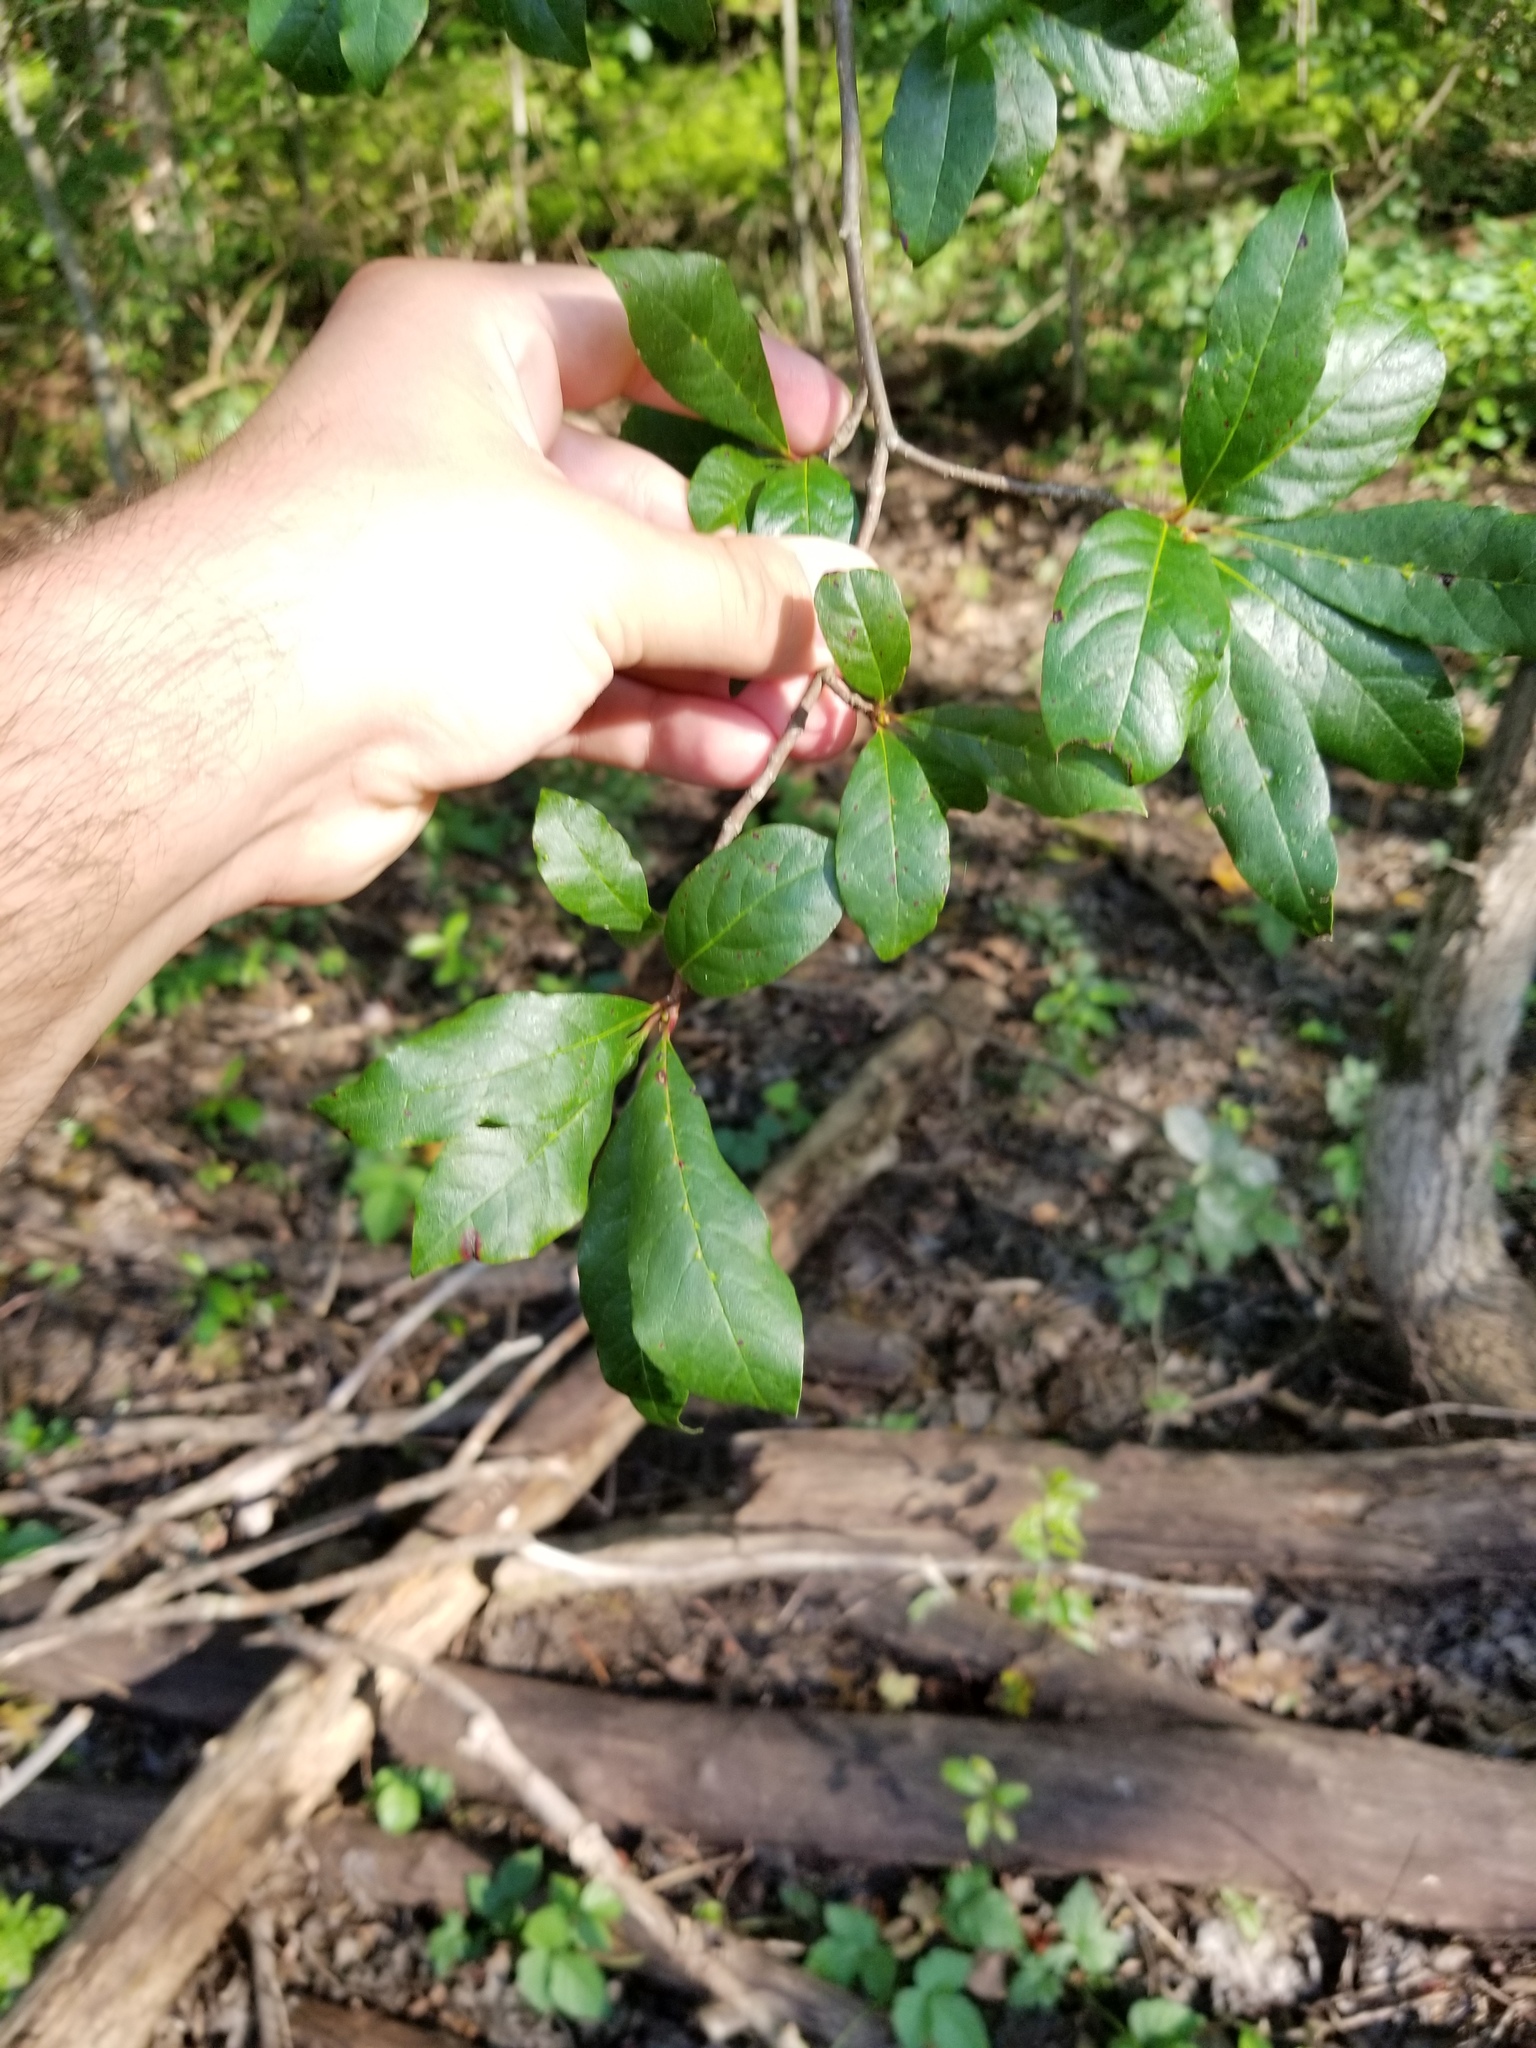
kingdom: Plantae
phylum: Tracheophyta
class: Magnoliopsida
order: Cornales
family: Nyssaceae
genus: Nyssa
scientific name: Nyssa sylvatica
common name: Black tupelo
